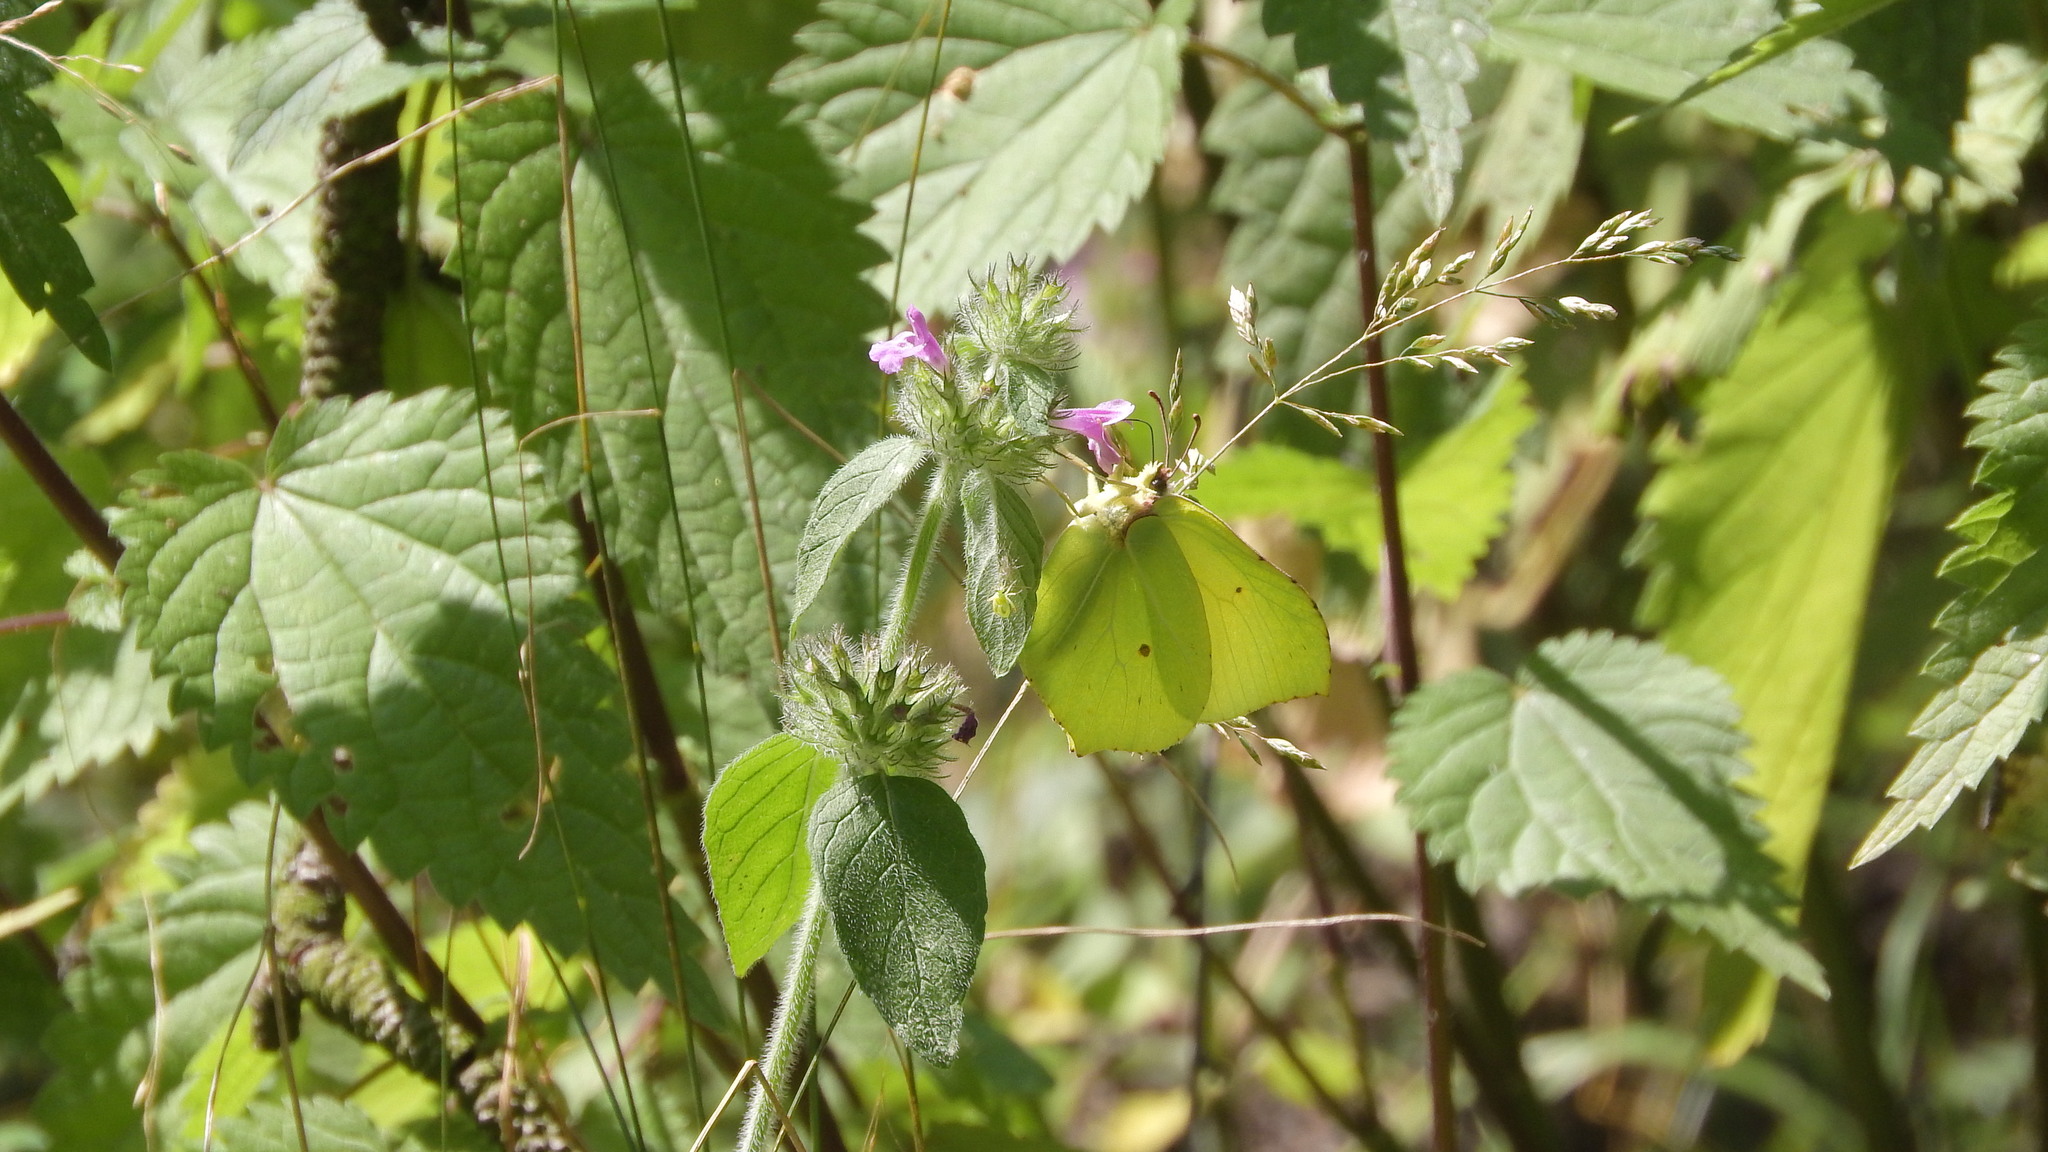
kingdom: Animalia
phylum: Arthropoda
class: Insecta
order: Lepidoptera
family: Pieridae
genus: Gonepteryx
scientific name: Gonepteryx rhamni
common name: Brimstone
